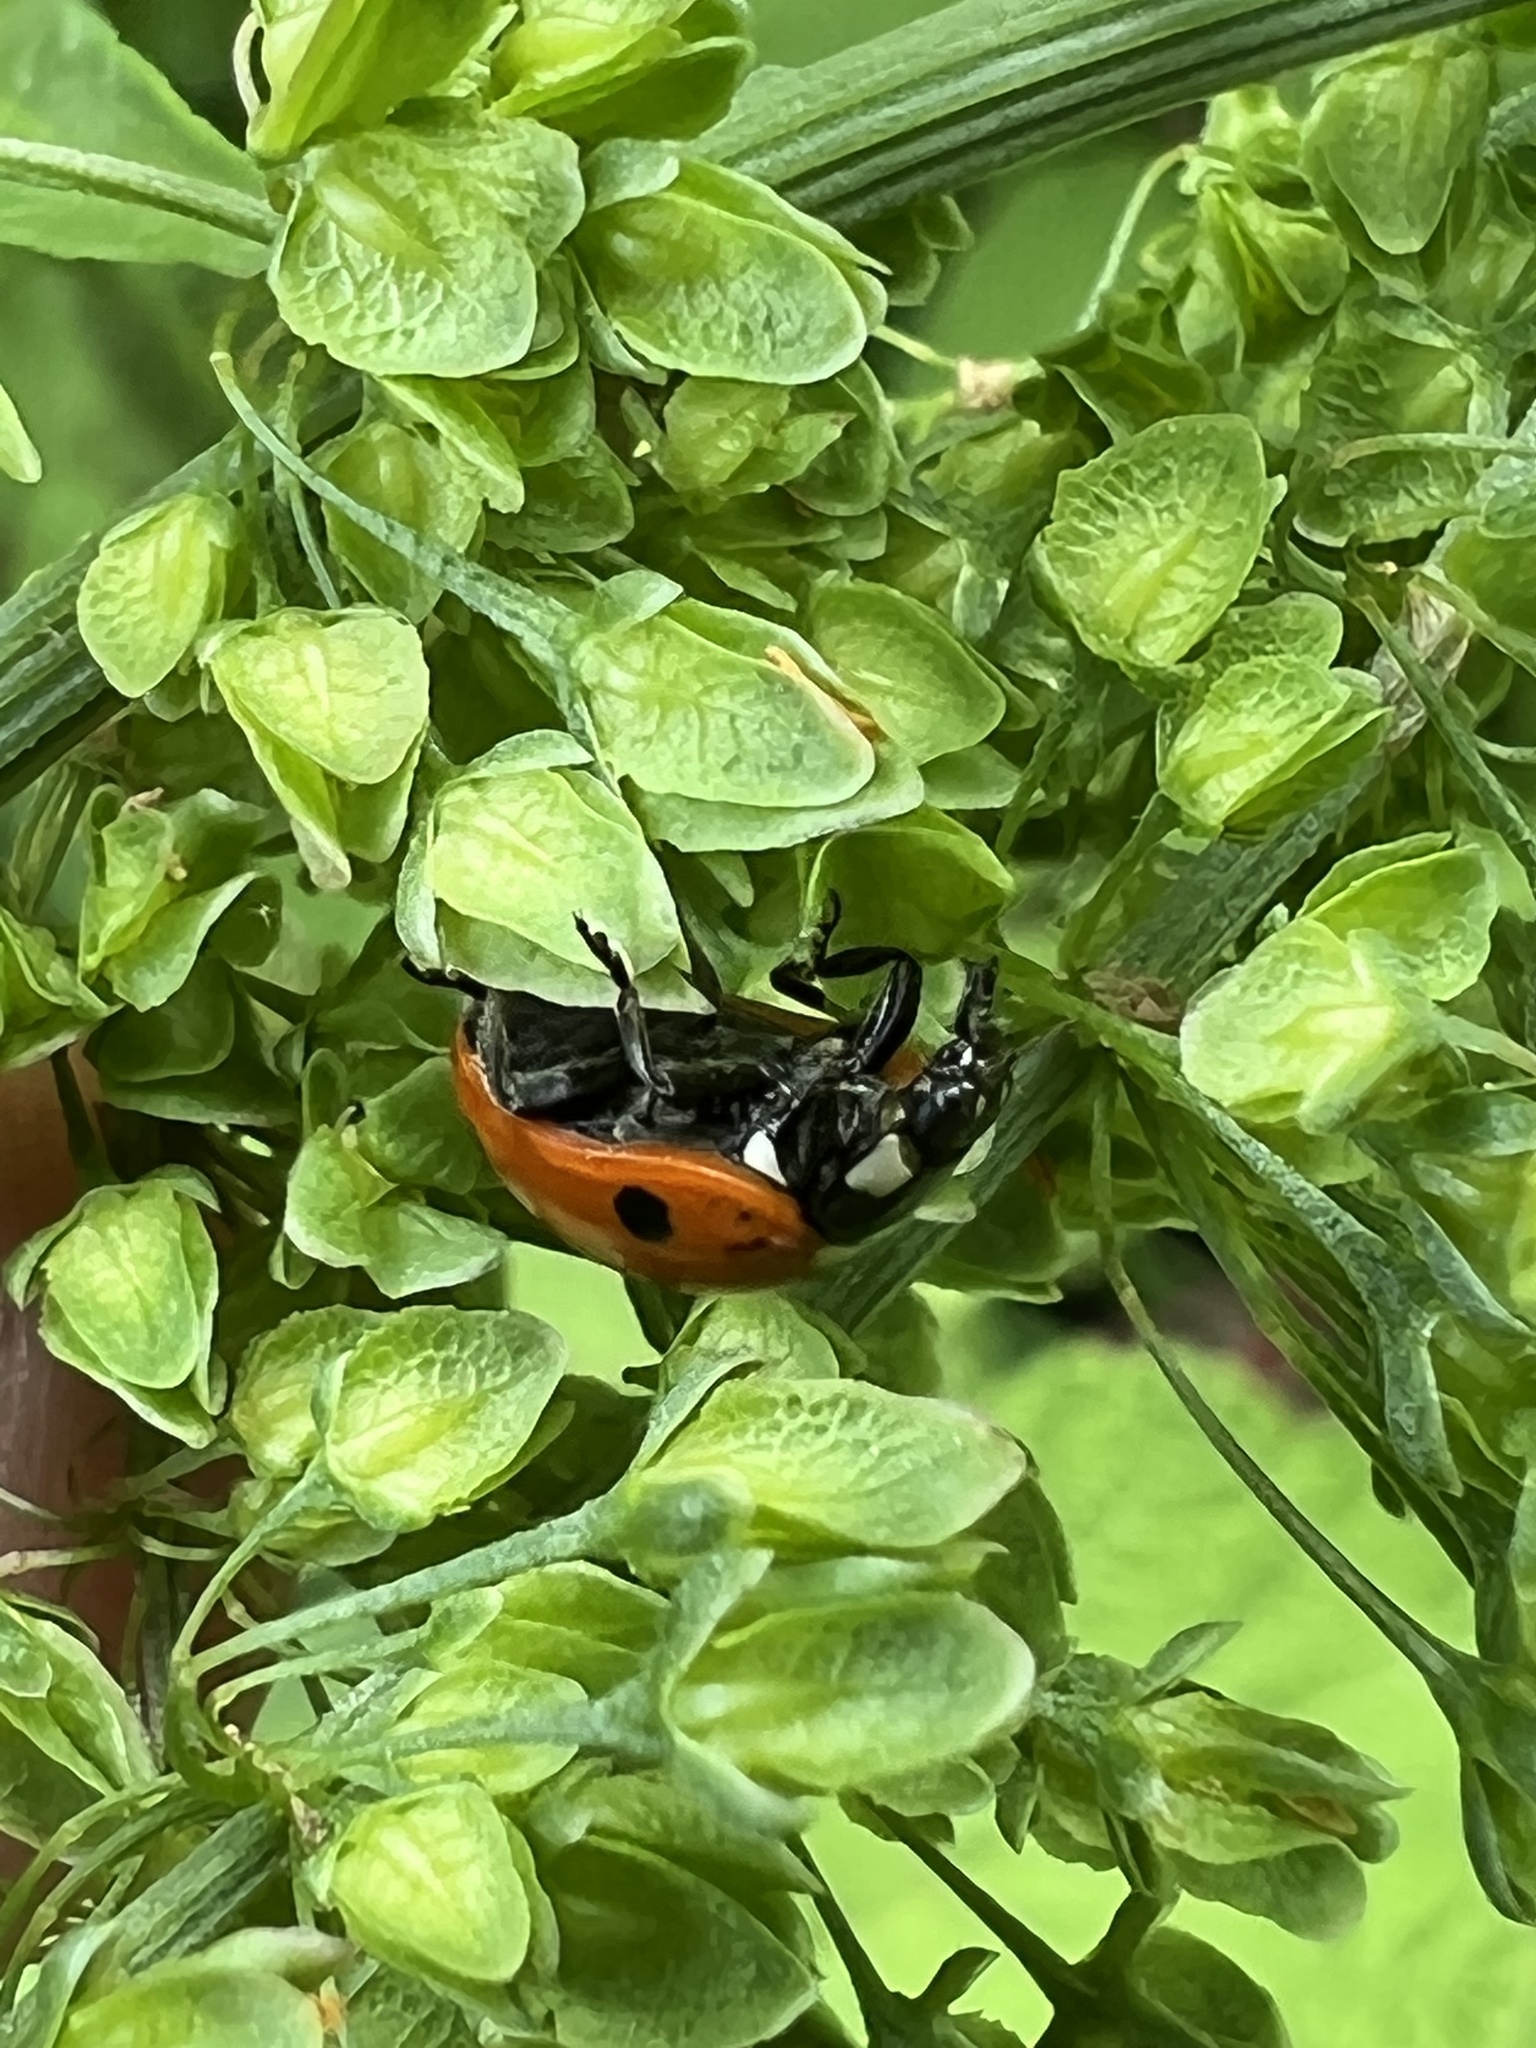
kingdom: Animalia
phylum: Arthropoda
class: Insecta
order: Coleoptera
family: Coccinellidae
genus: Coccinella
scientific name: Coccinella septempunctata
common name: Sevenspotted lady beetle
